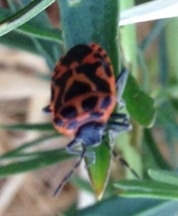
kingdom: Animalia
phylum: Arthropoda
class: Insecta
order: Hemiptera
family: Pentatomidae
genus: Eurydema
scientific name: Eurydema ventralis
